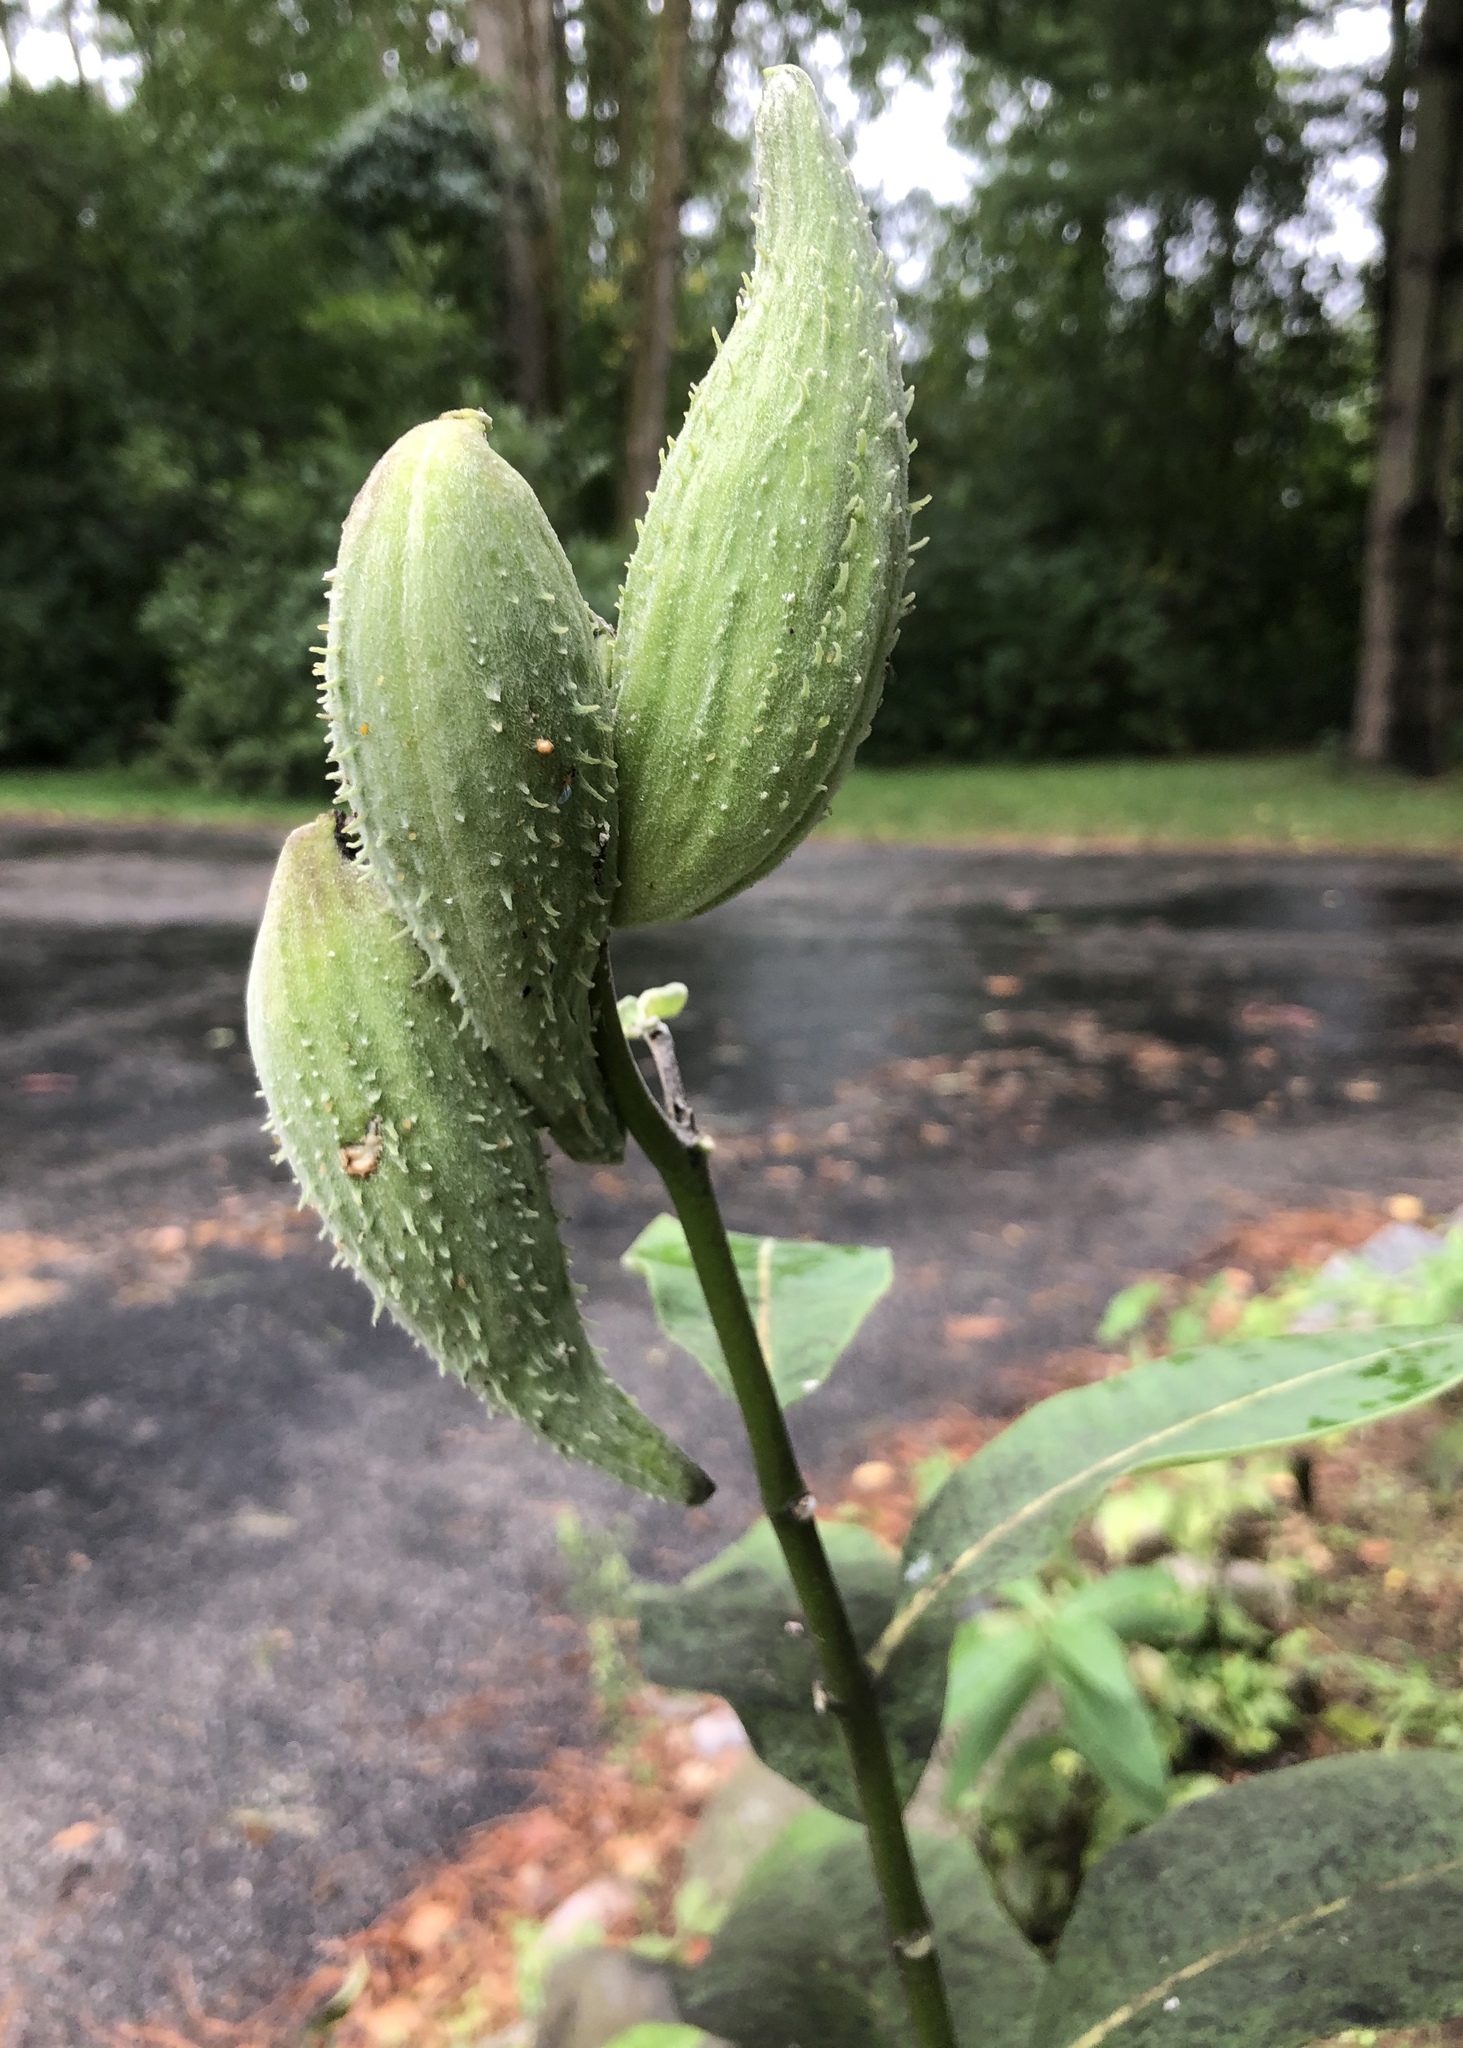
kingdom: Plantae
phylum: Tracheophyta
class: Magnoliopsida
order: Gentianales
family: Apocynaceae
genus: Asclepias
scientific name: Asclepias syriaca
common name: Common milkweed
